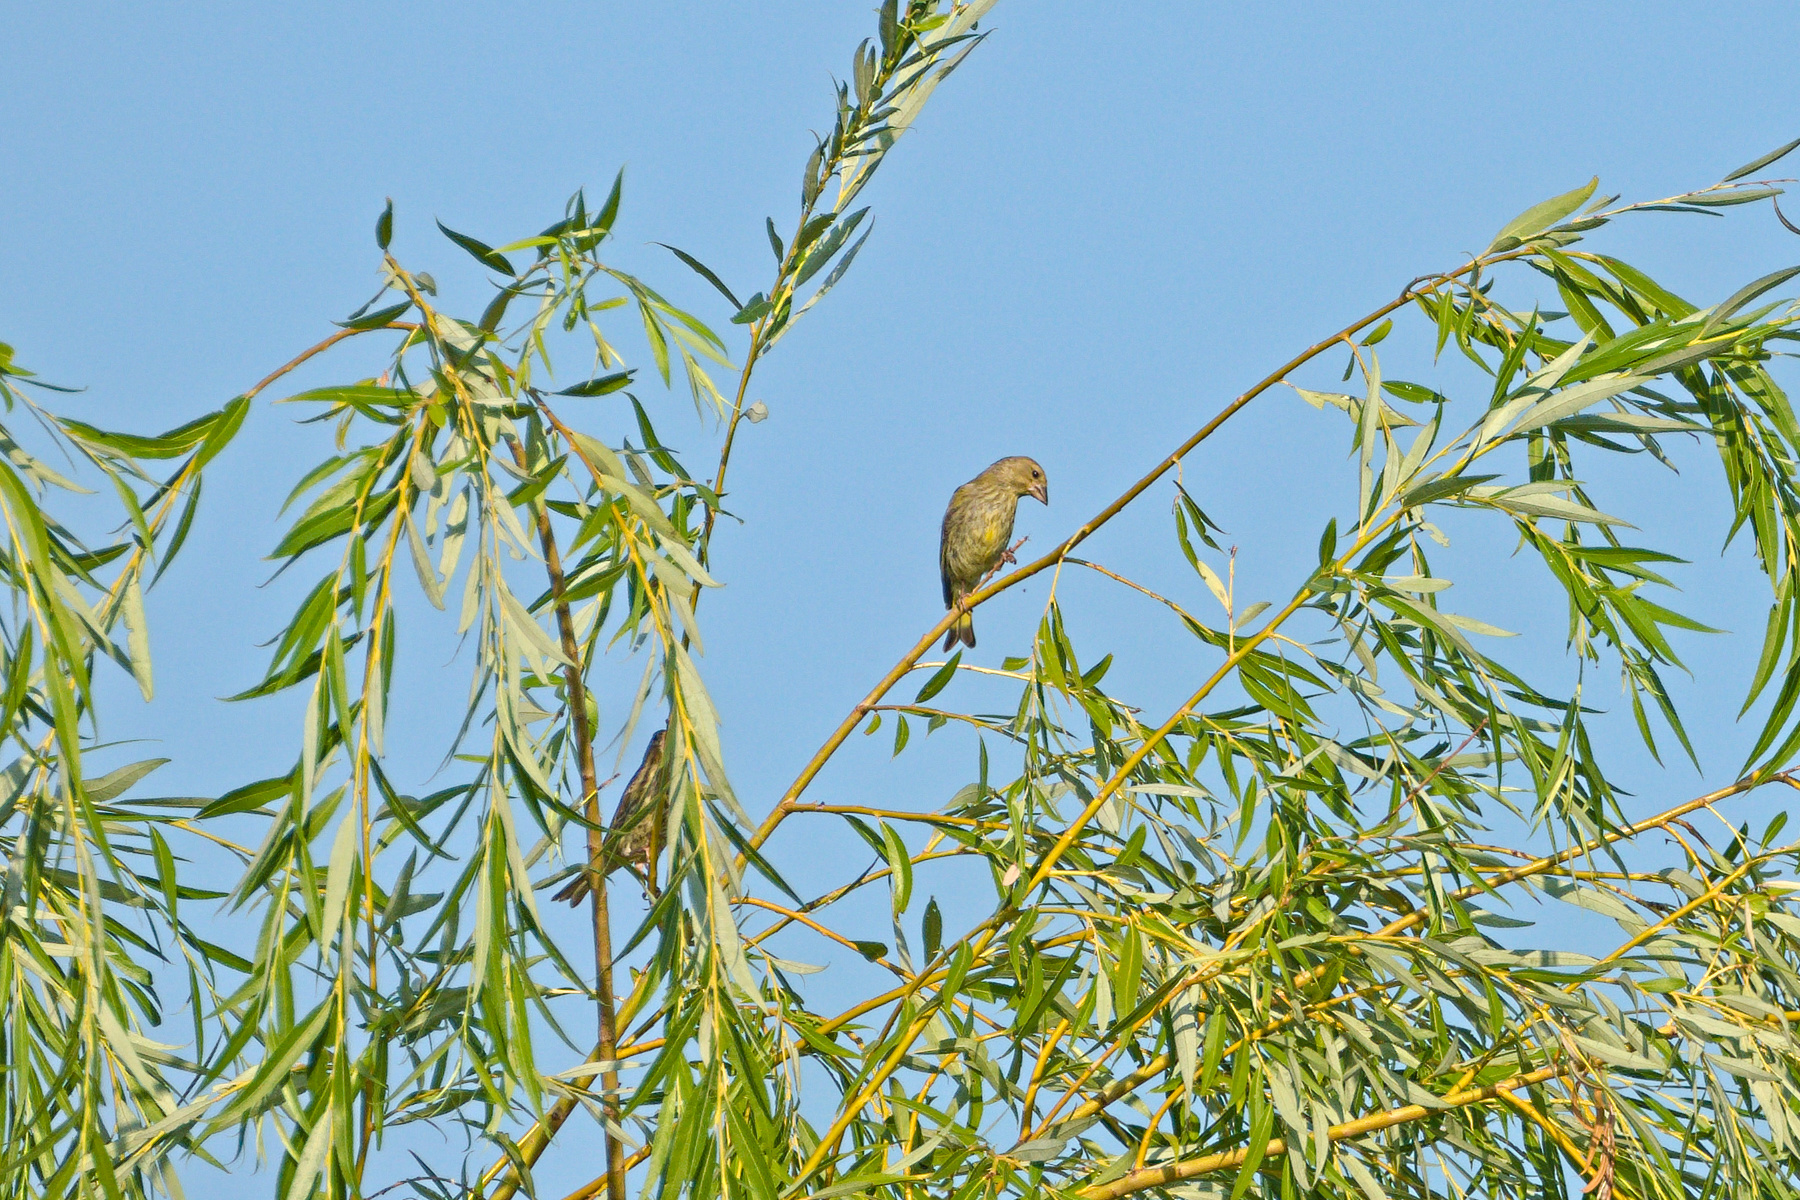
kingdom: Plantae
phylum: Tracheophyta
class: Liliopsida
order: Poales
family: Poaceae
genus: Chloris
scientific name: Chloris chloris
